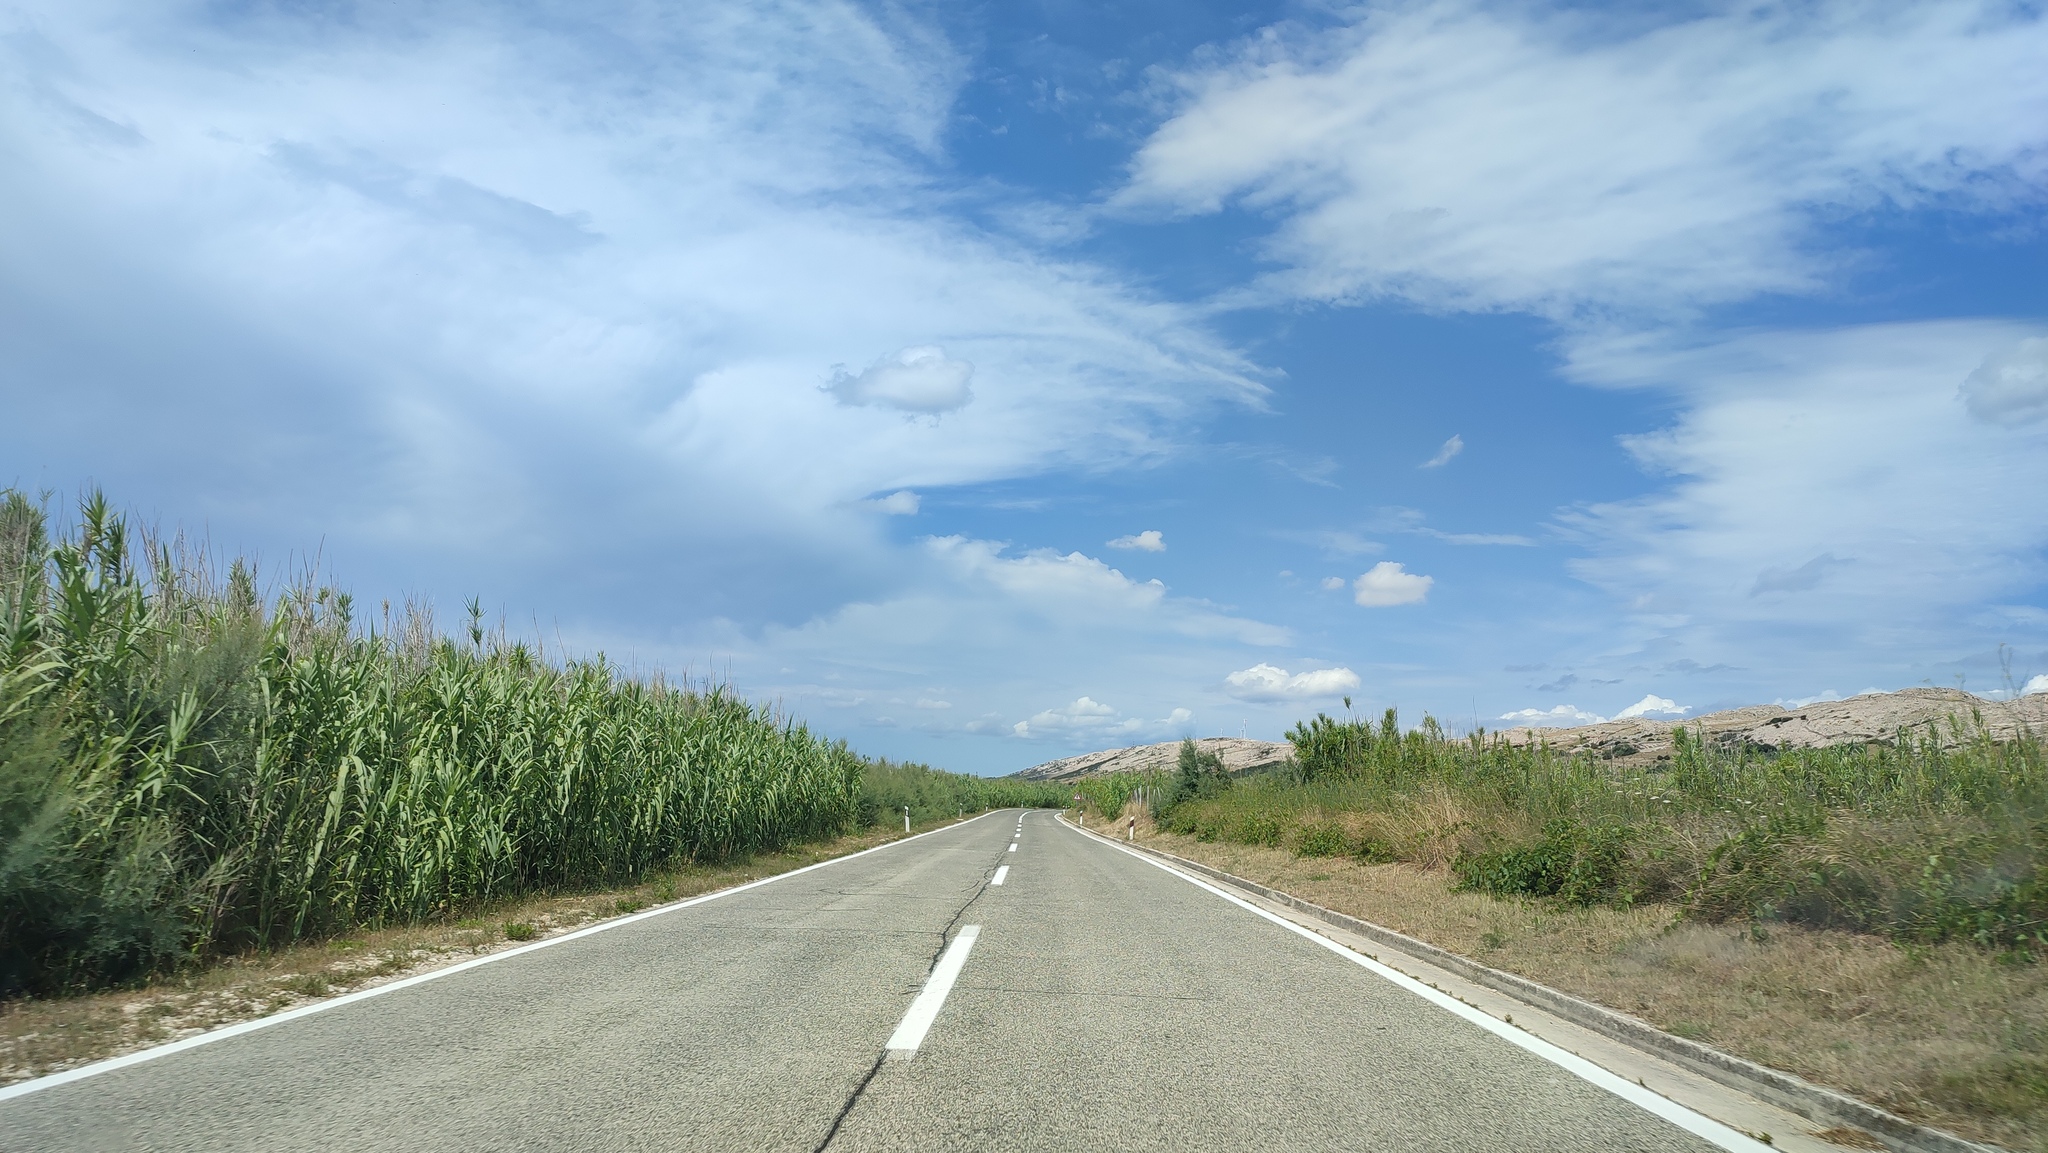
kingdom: Plantae
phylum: Tracheophyta
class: Liliopsida
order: Poales
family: Poaceae
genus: Arundo
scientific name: Arundo donax
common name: Giant reed
